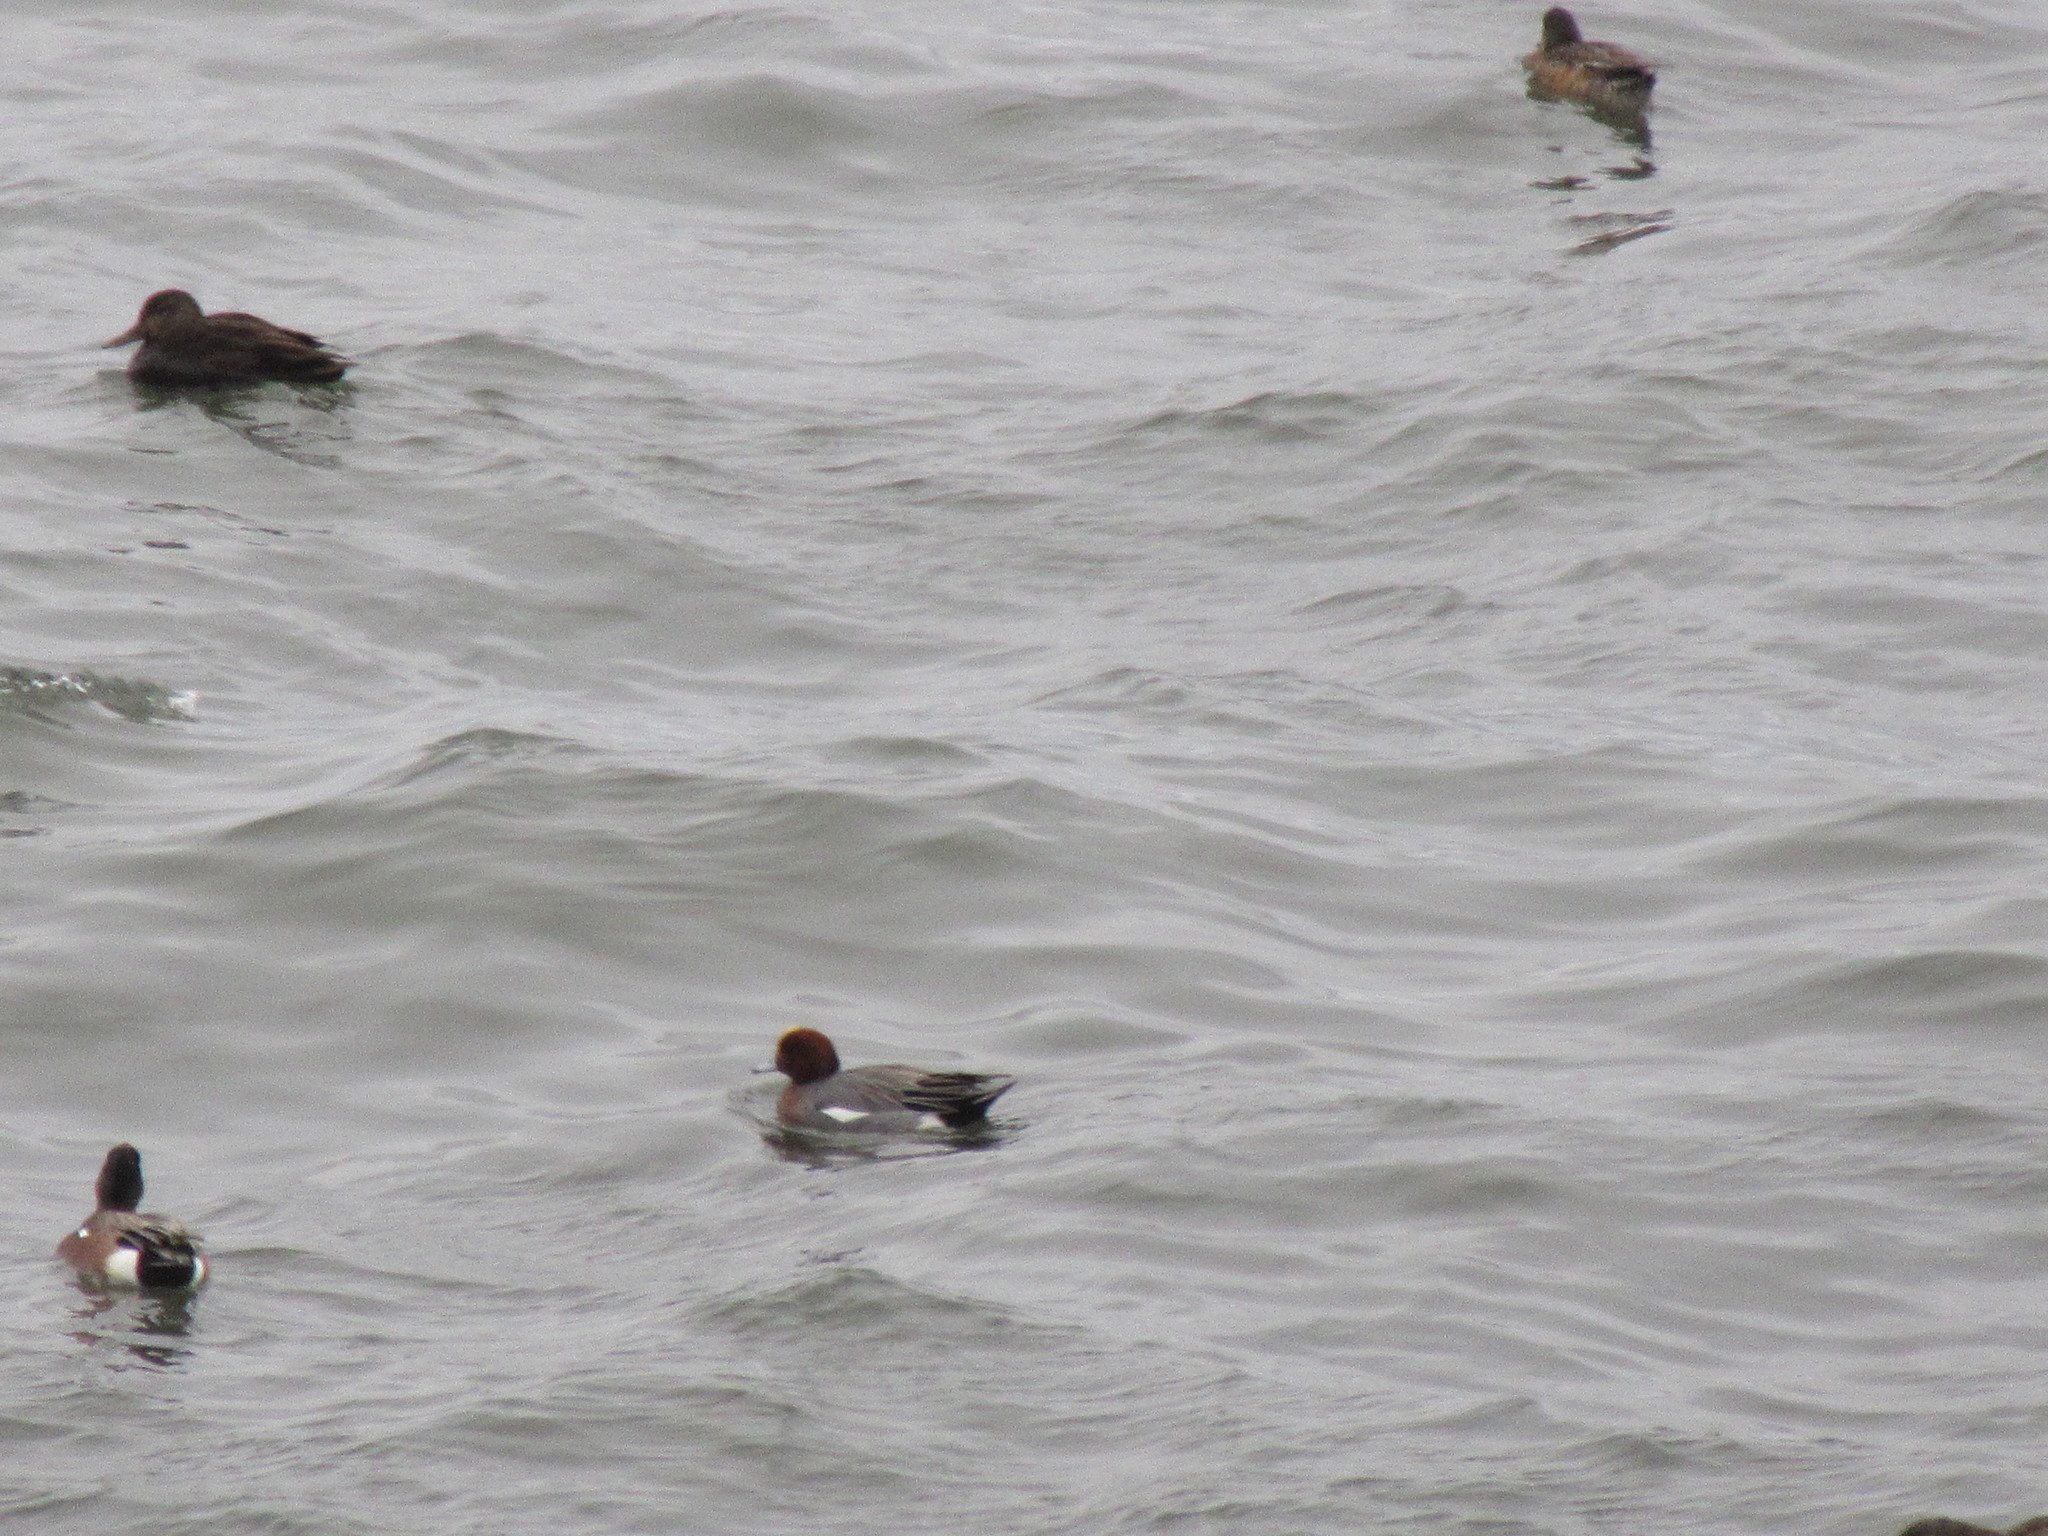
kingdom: Animalia
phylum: Chordata
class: Aves
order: Anseriformes
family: Anatidae
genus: Mareca
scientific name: Mareca penelope
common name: Eurasian wigeon
